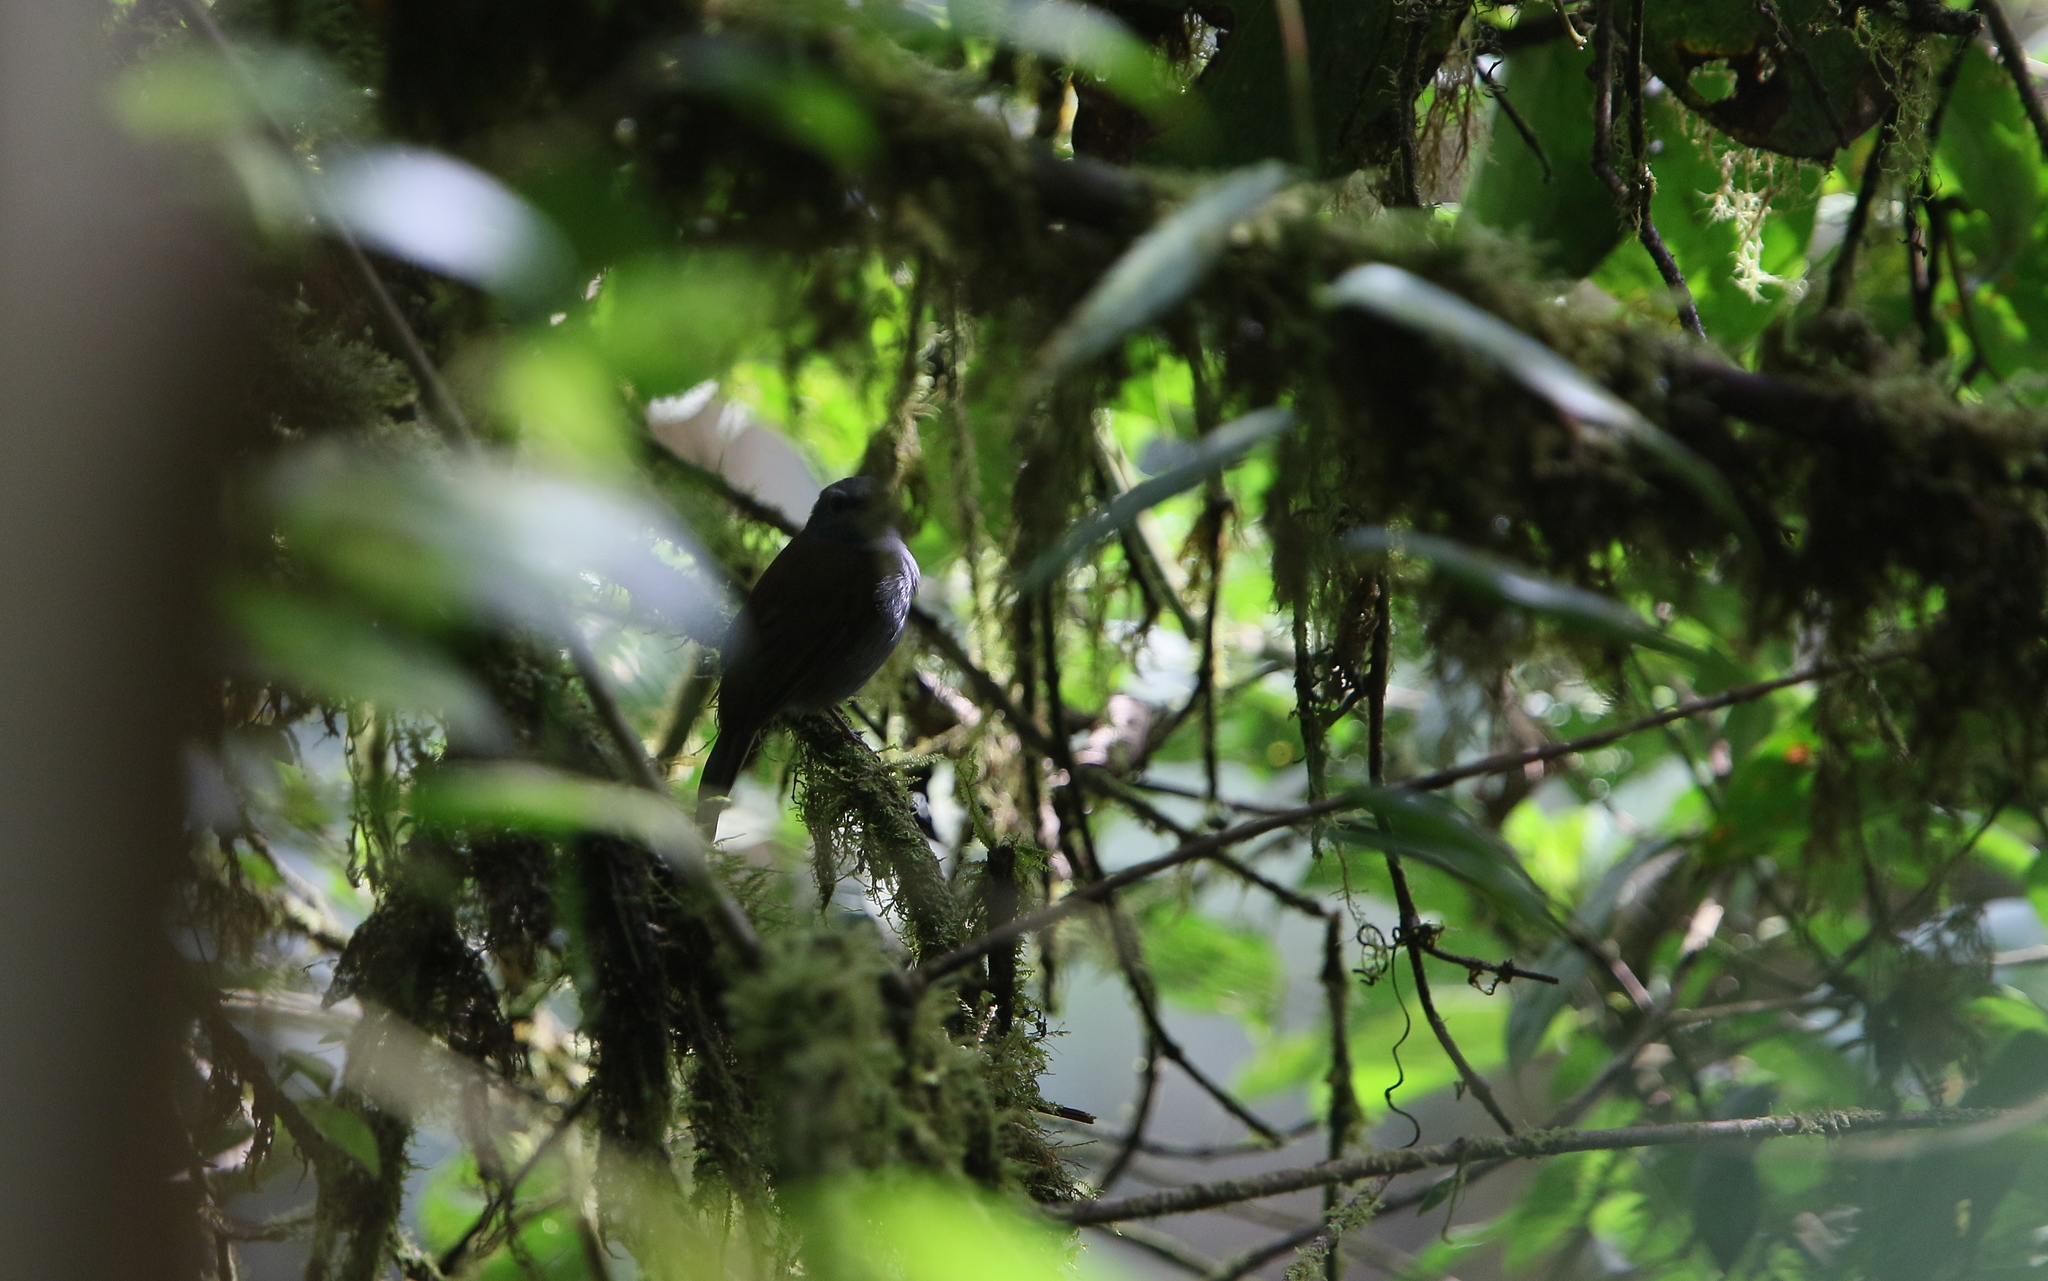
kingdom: Animalia
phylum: Chordata
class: Aves
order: Passeriformes
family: Turdidae
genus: Myadestes
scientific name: Myadestes ralloides
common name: Andean solitaire
